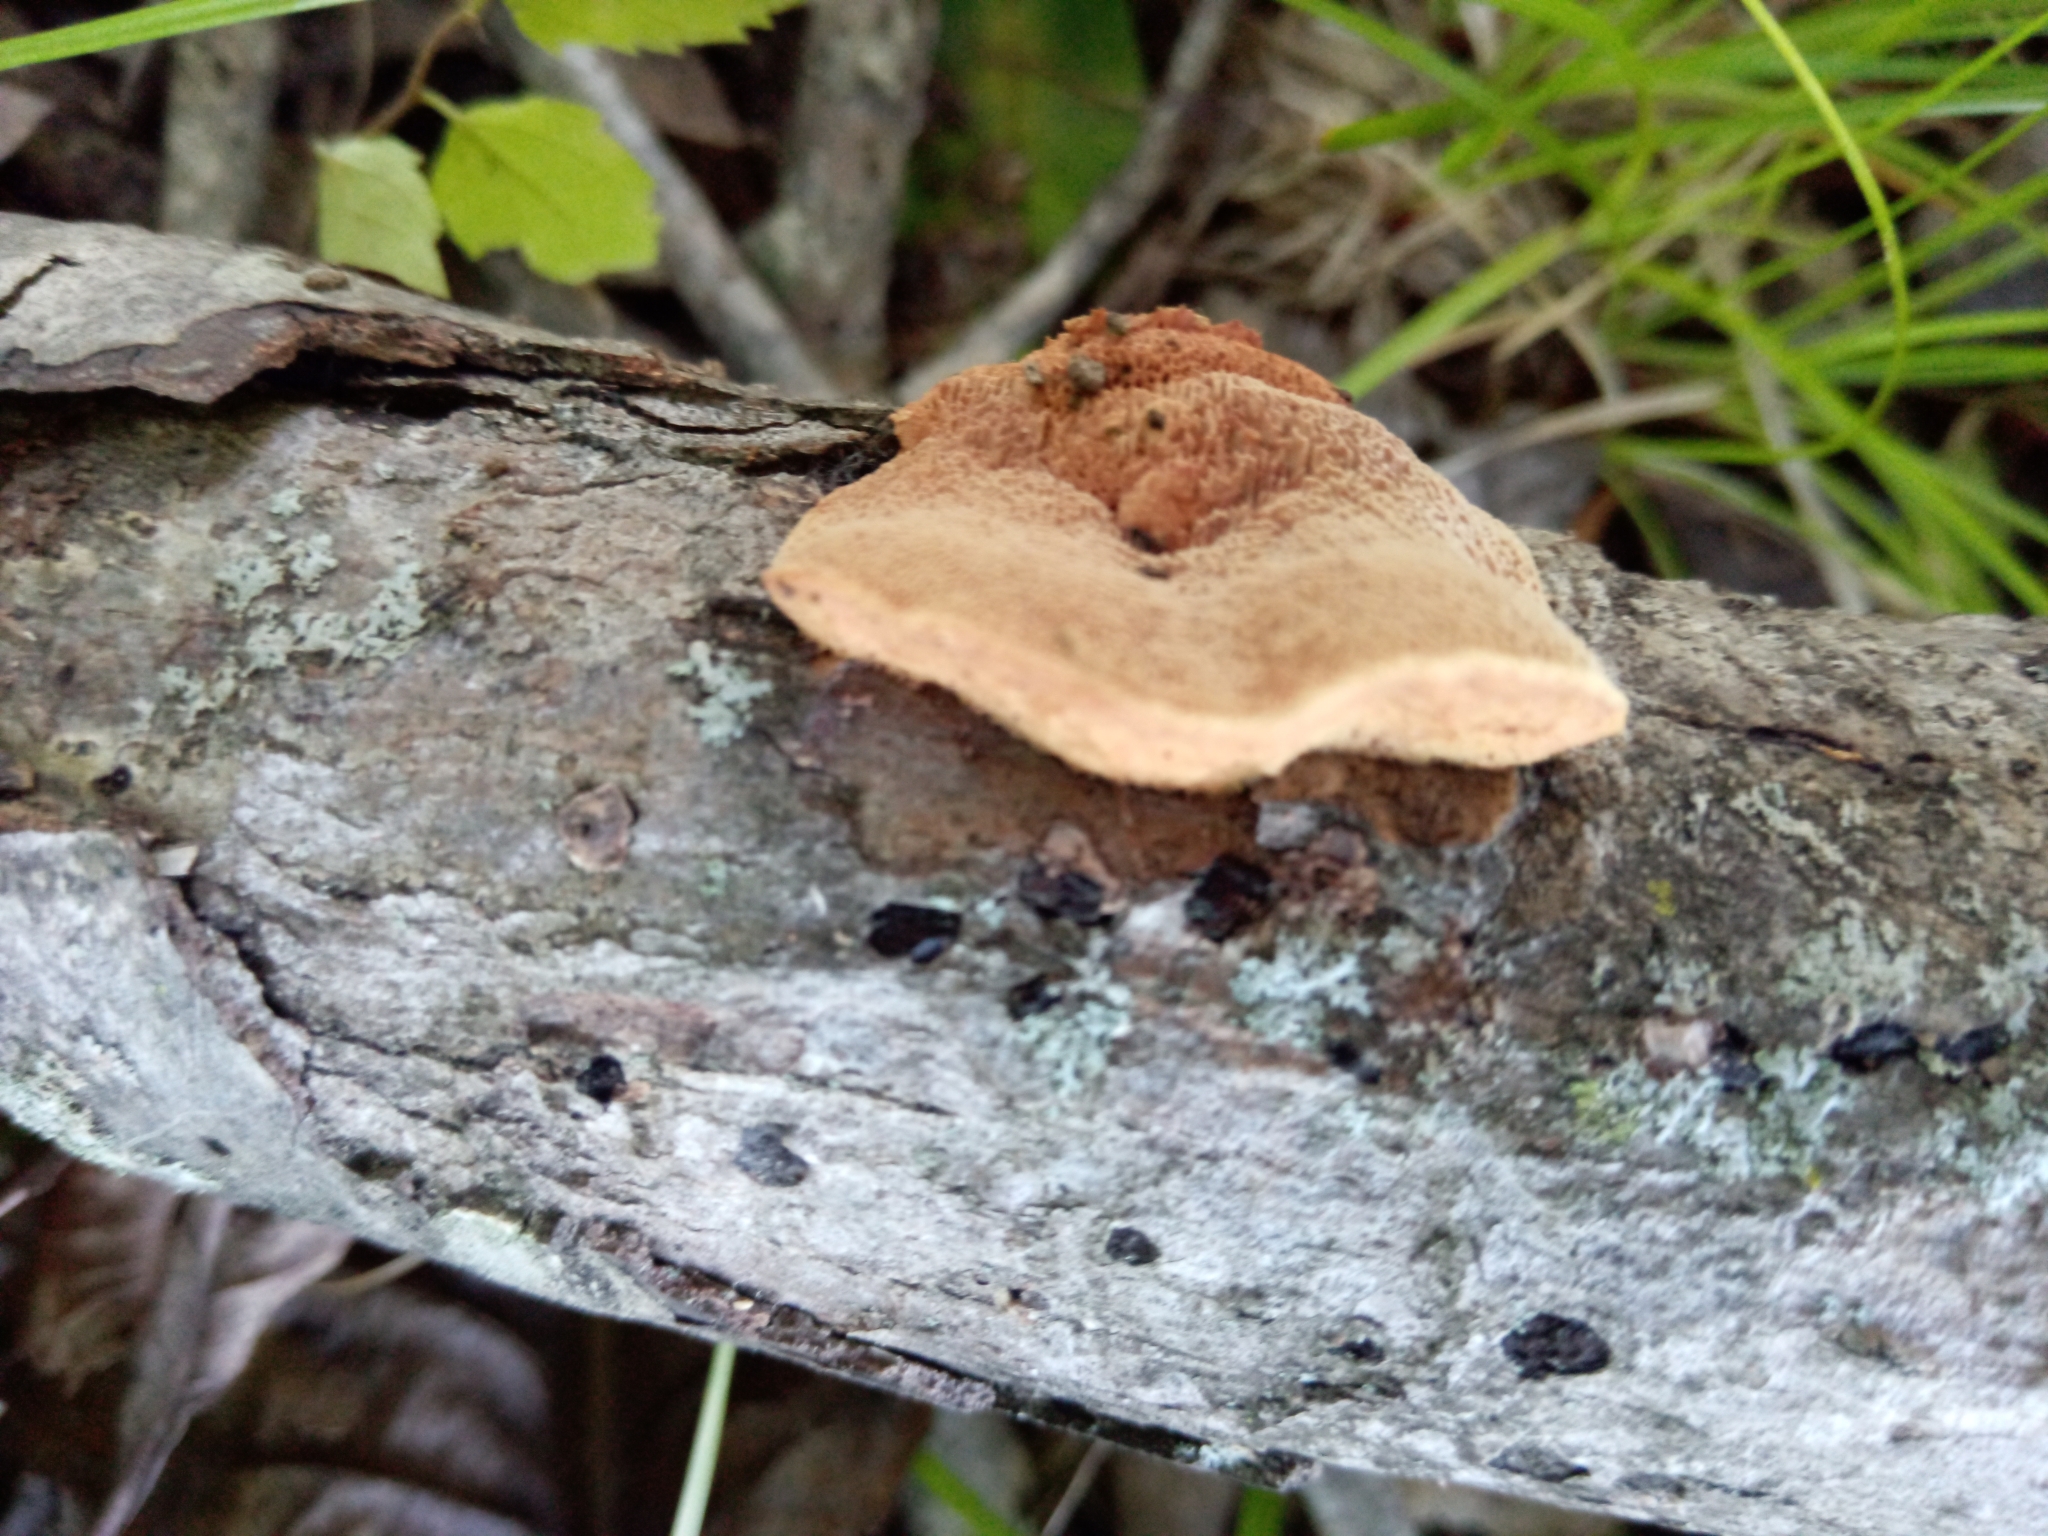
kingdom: Fungi
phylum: Basidiomycota
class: Agaricomycetes
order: Polyporales
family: Phanerochaetaceae
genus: Hapalopilus
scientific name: Hapalopilus rutilans
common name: Tender nesting polypore
